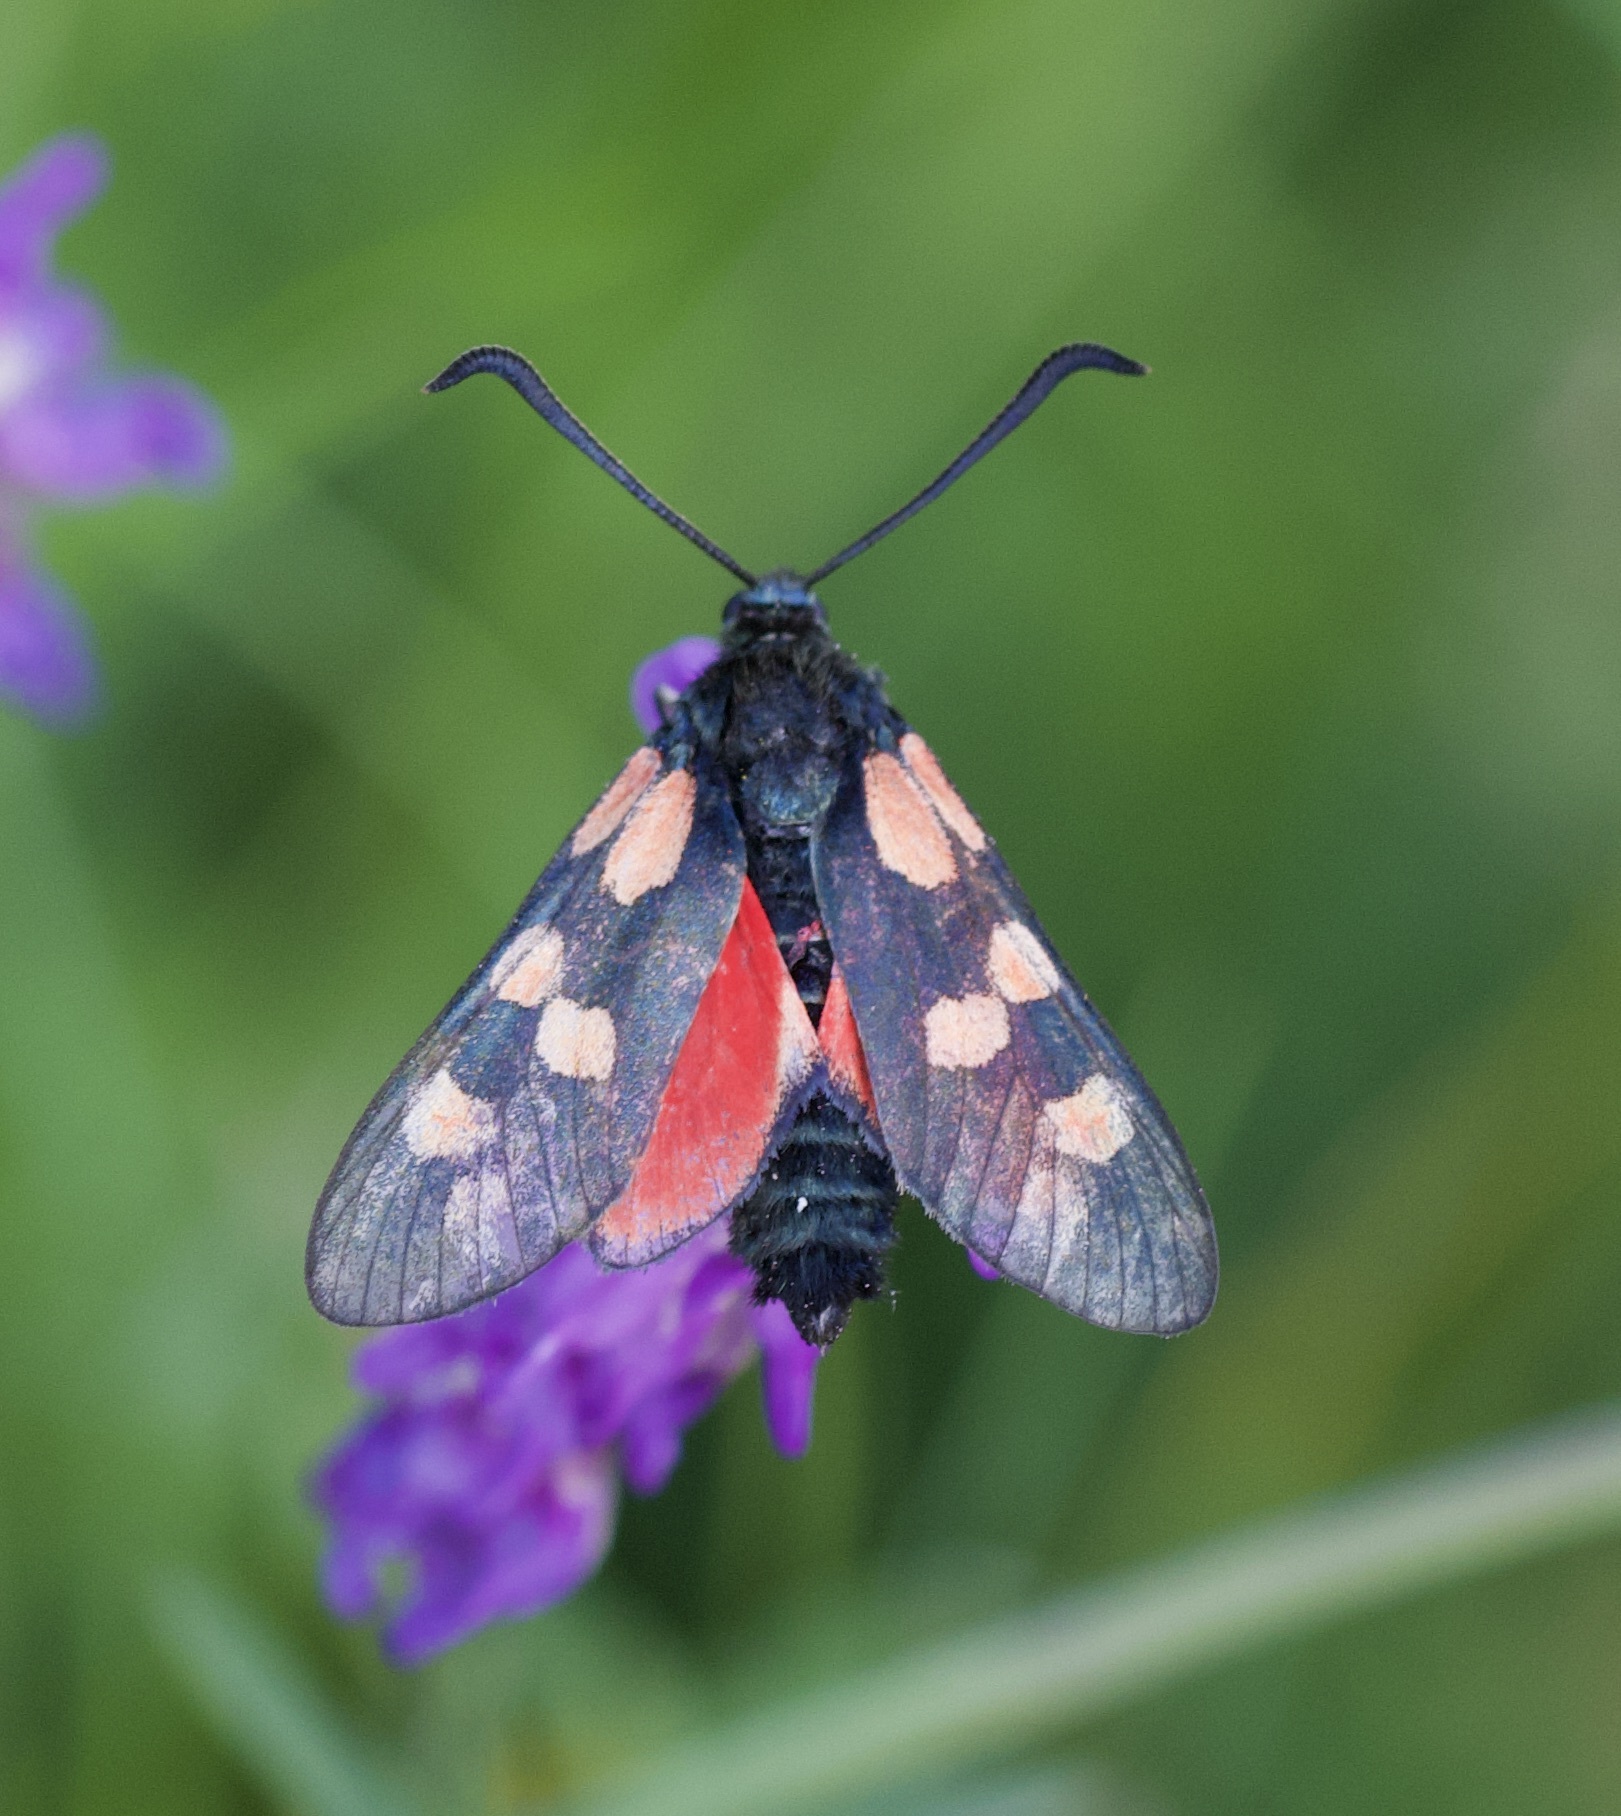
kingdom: Animalia
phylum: Arthropoda
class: Insecta
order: Lepidoptera
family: Zygaenidae
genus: Zygaena
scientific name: Zygaena filipendulae
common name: Six-spot burnet
